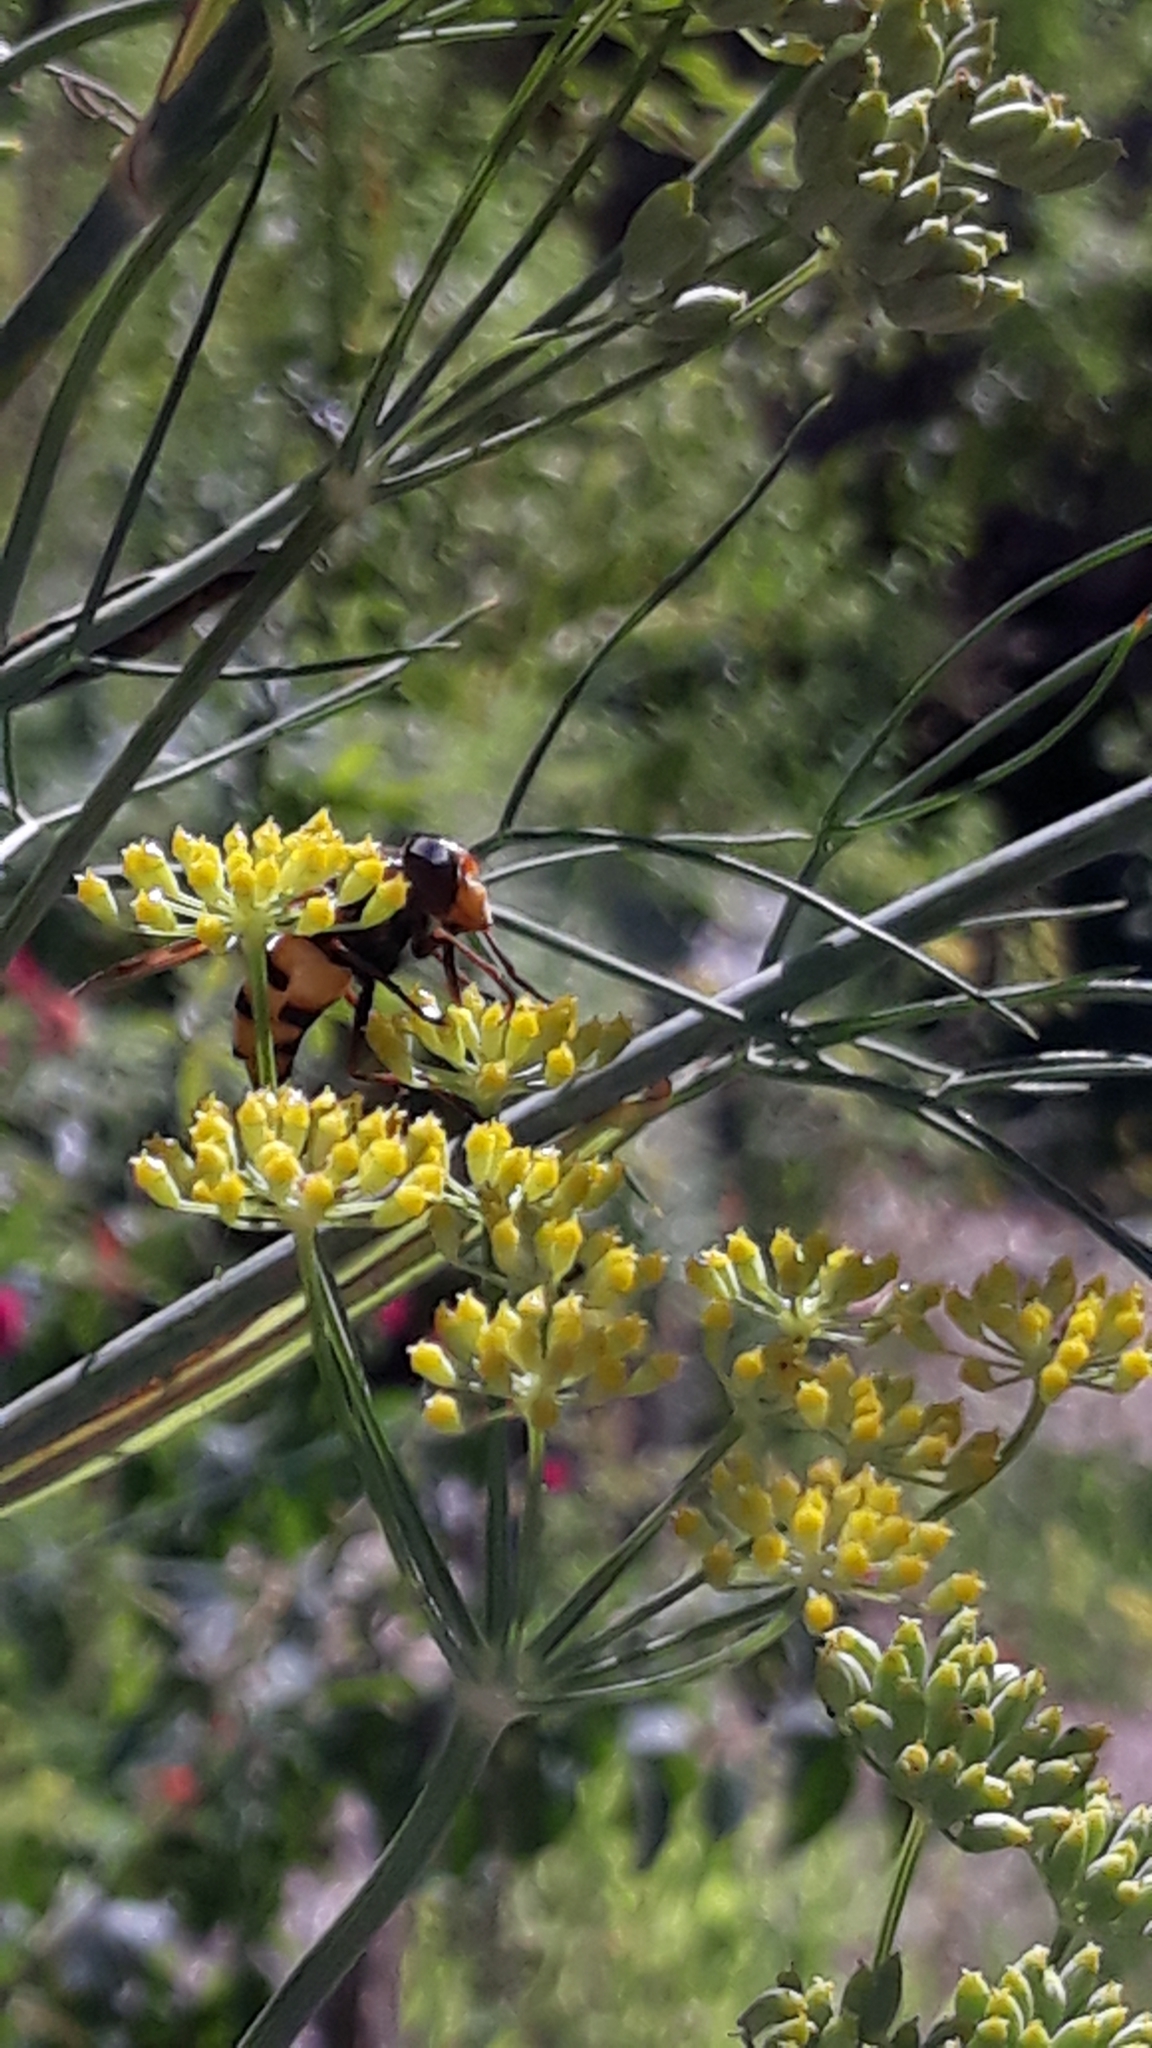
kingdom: Animalia
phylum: Arthropoda
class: Insecta
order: Diptera
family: Syrphidae
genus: Volucella
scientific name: Volucella inanis
